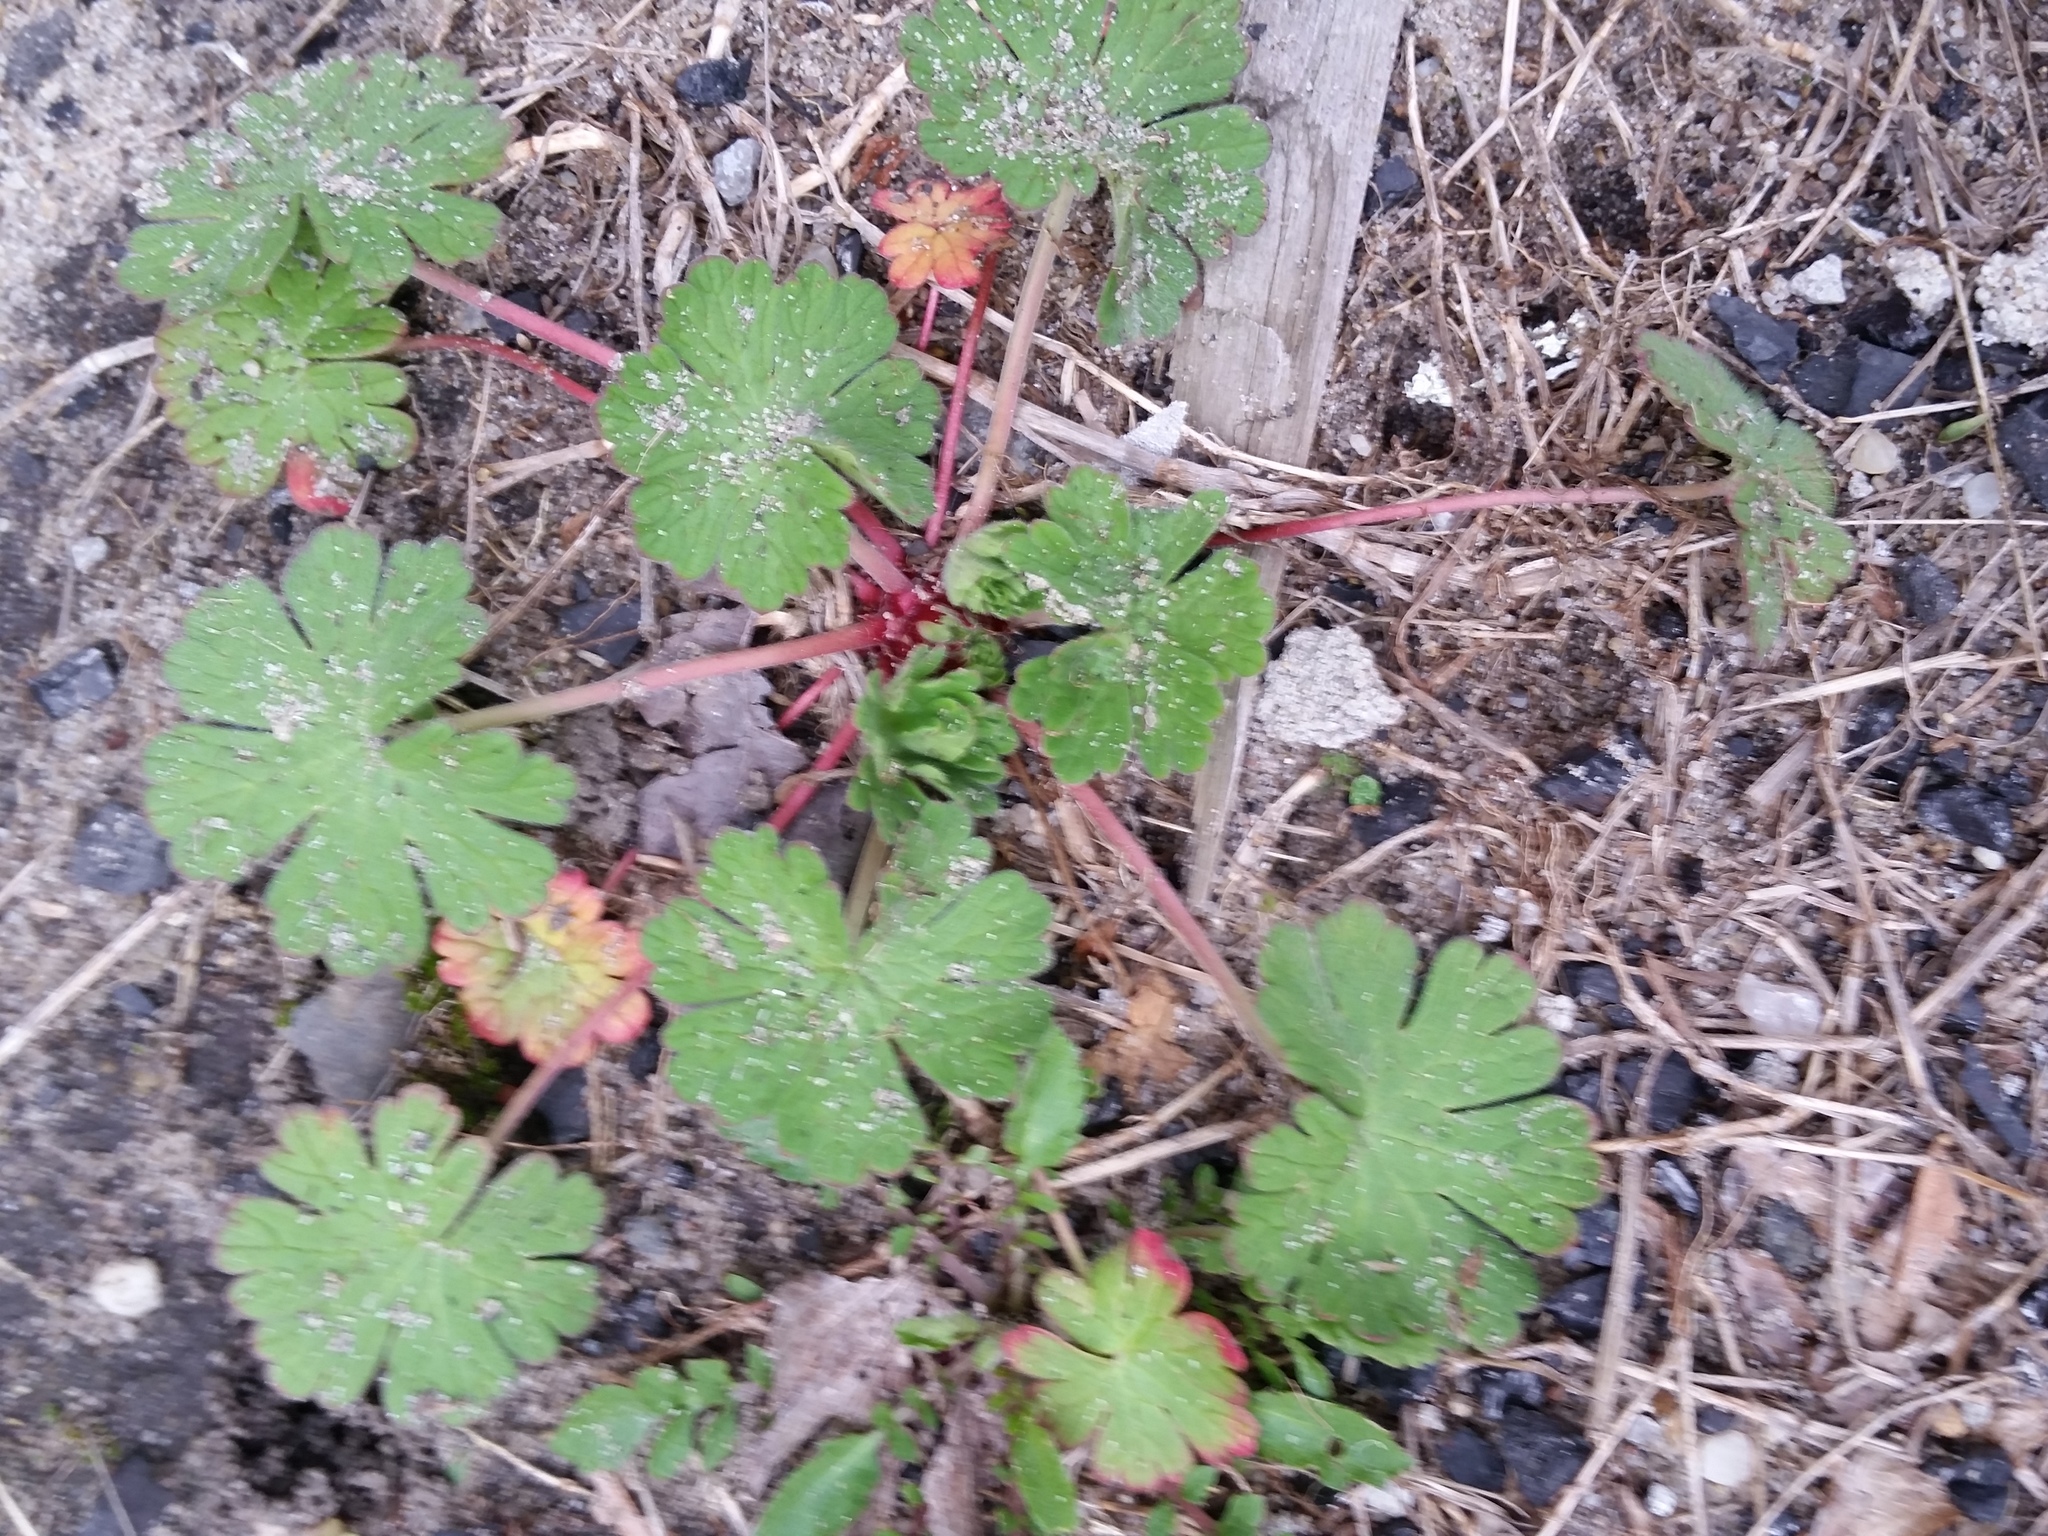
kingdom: Plantae
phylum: Tracheophyta
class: Magnoliopsida
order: Geraniales
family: Geraniaceae
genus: Geranium
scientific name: Geranium molle
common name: Dove's-foot crane's-bill
